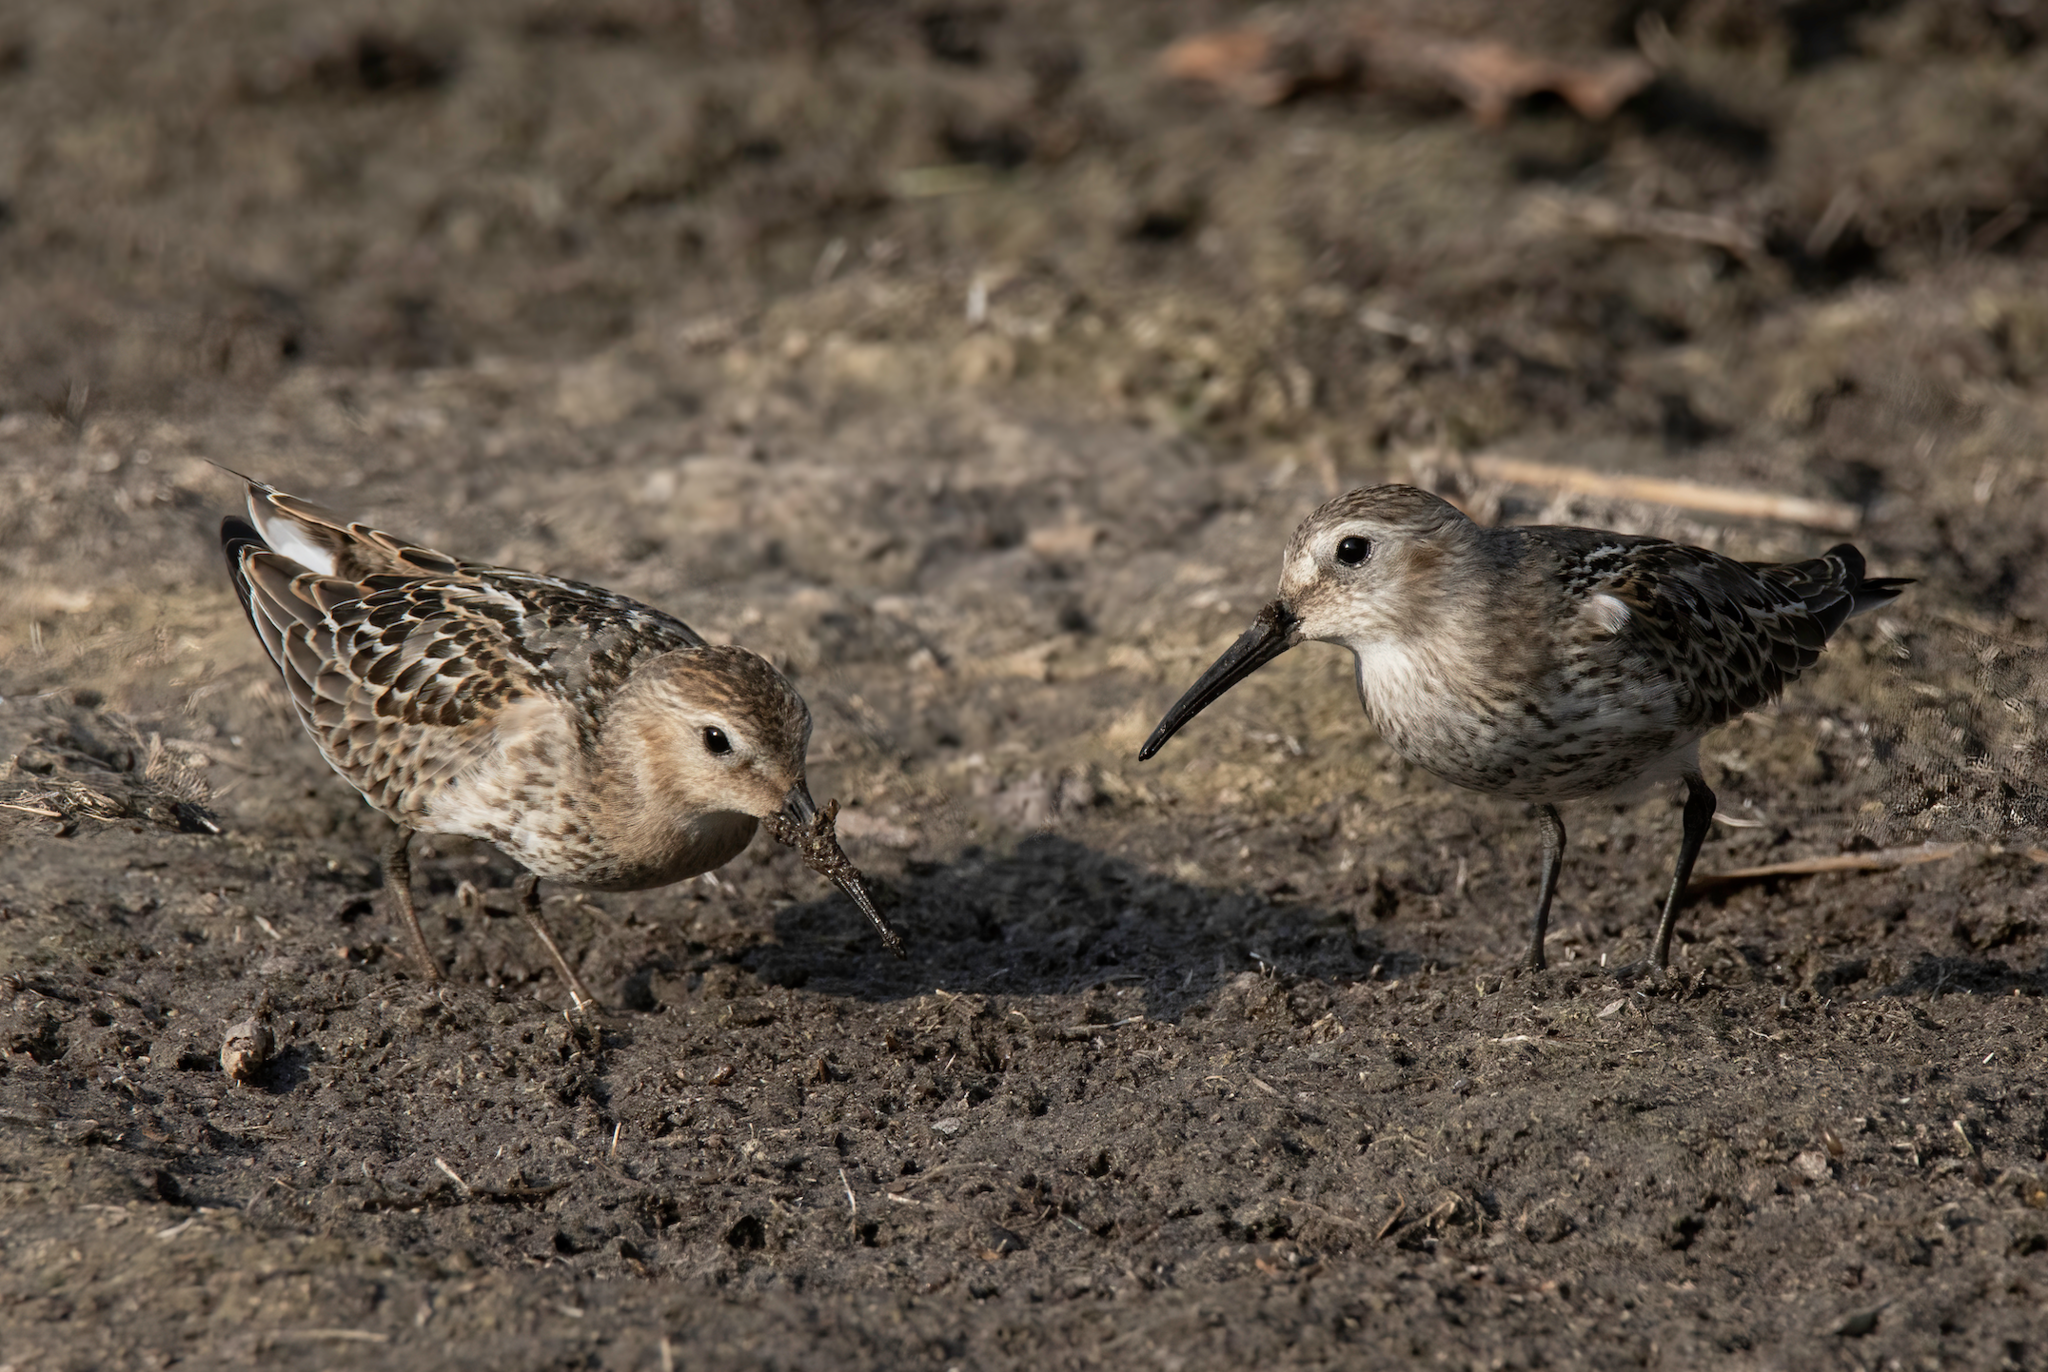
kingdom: Animalia
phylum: Chordata
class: Aves
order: Charadriiformes
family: Scolopacidae
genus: Calidris
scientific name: Calidris alpina
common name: Dunlin
